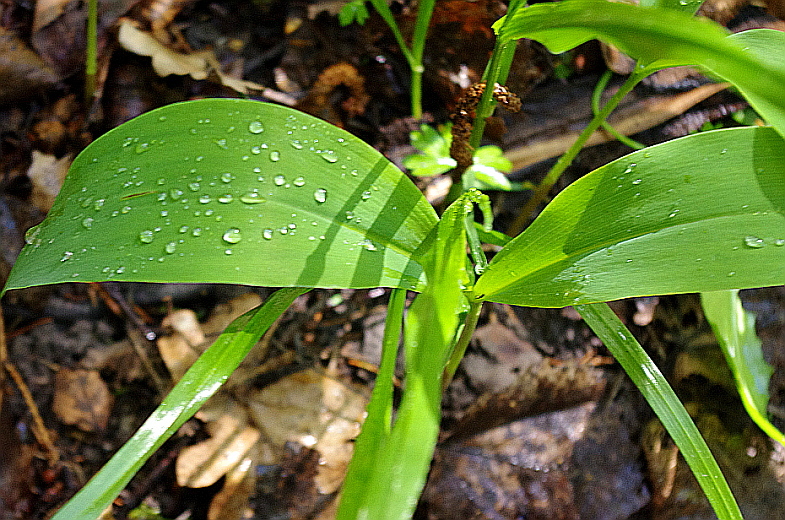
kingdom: Plantae
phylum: Tracheophyta
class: Liliopsida
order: Asparagales
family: Asparagaceae
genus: Convallaria
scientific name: Convallaria majalis
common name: Lily-of-the-valley
